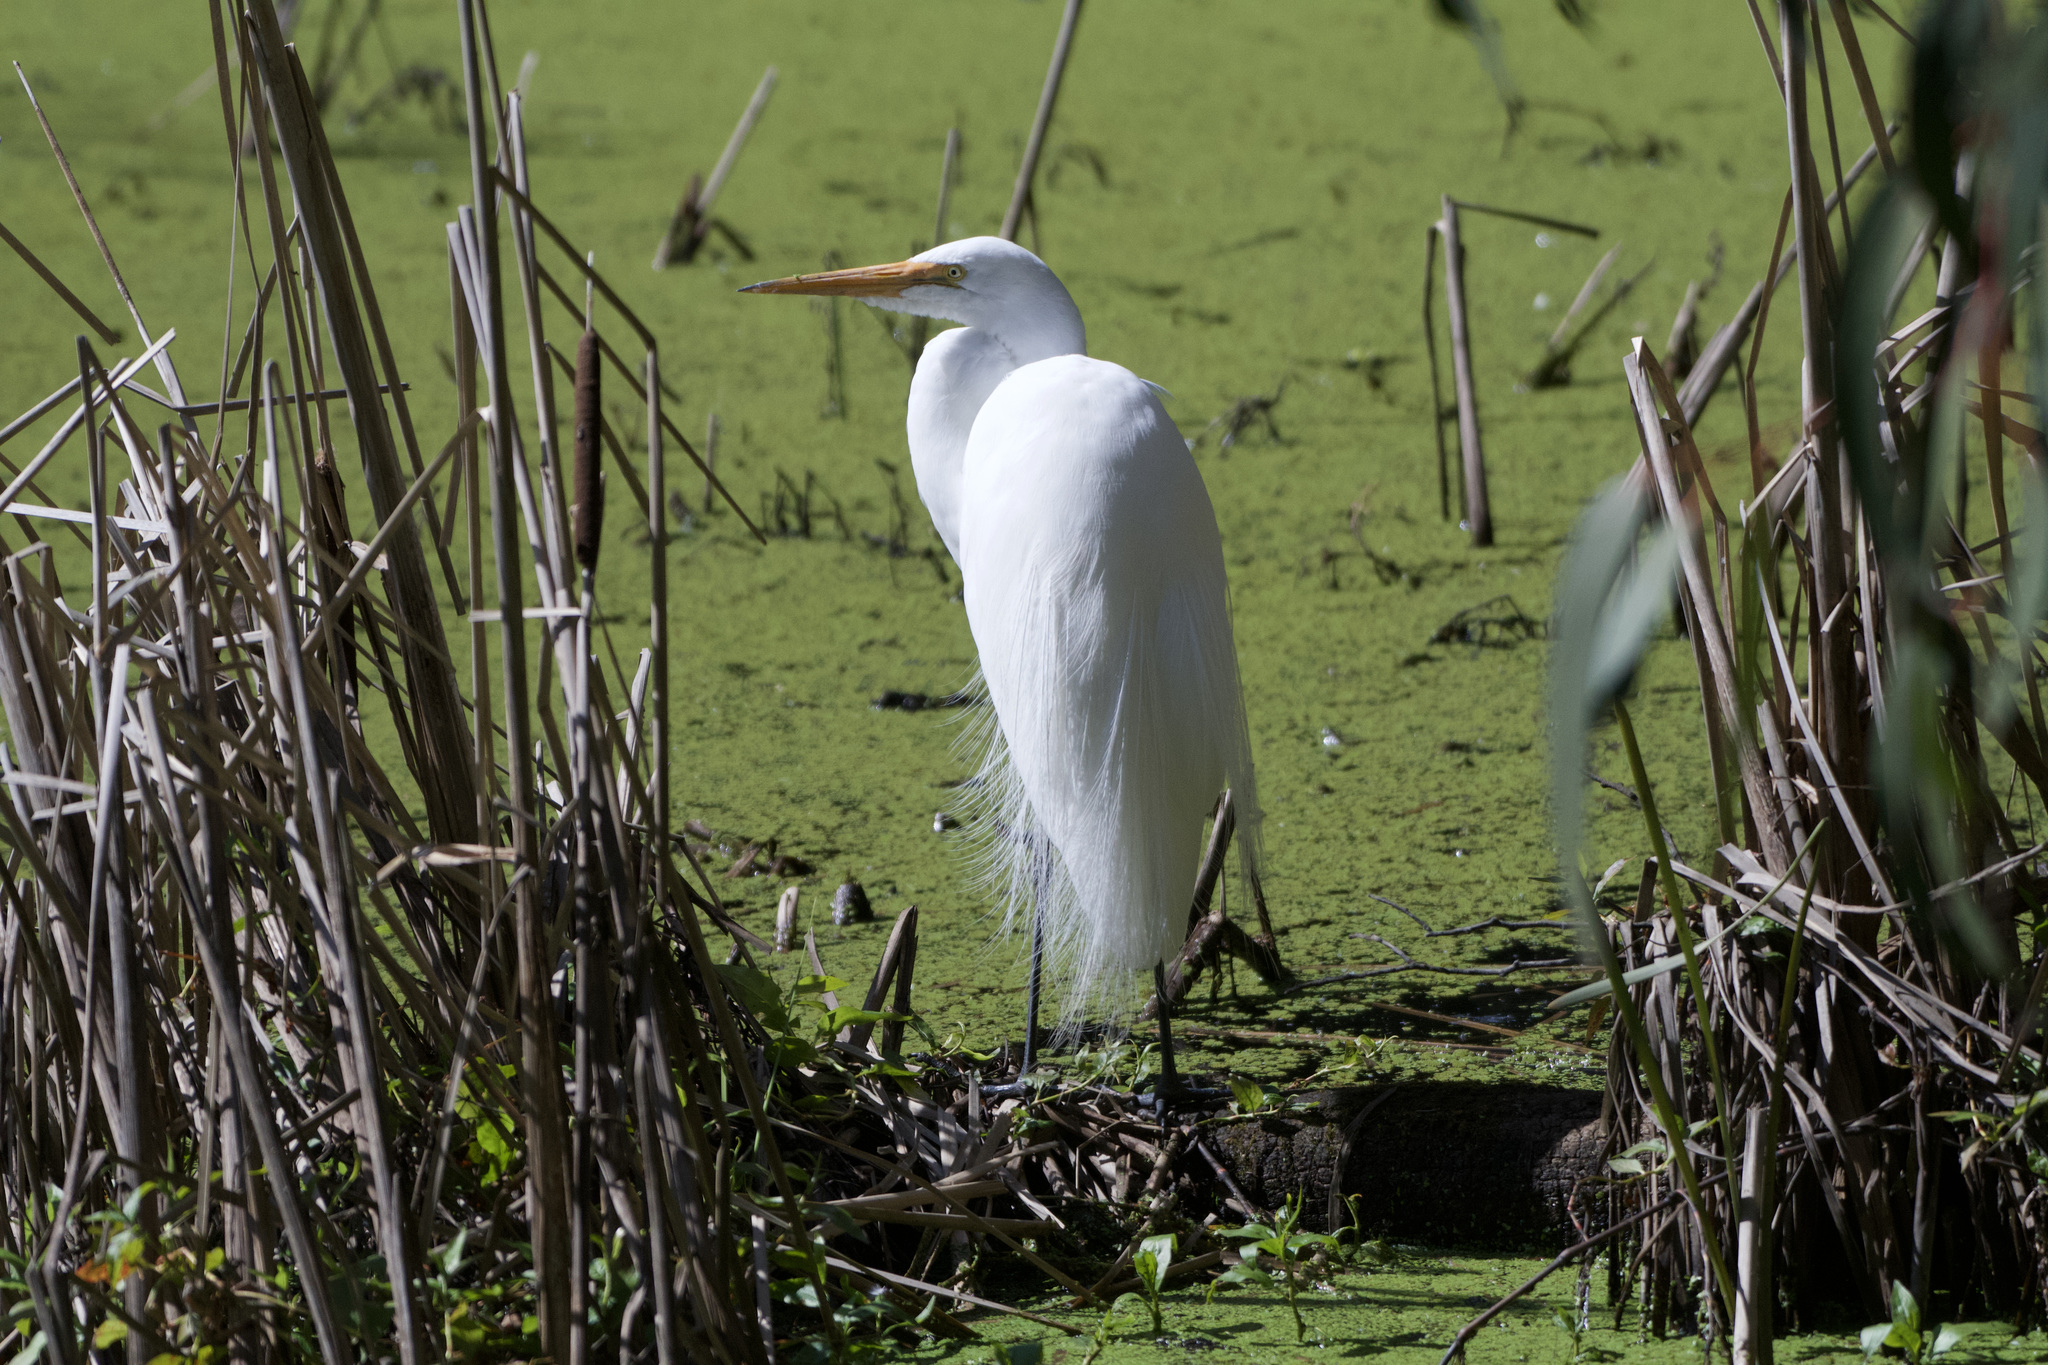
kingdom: Animalia
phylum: Chordata
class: Aves
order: Pelecaniformes
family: Ardeidae
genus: Ardea
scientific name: Ardea alba
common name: Great egret
